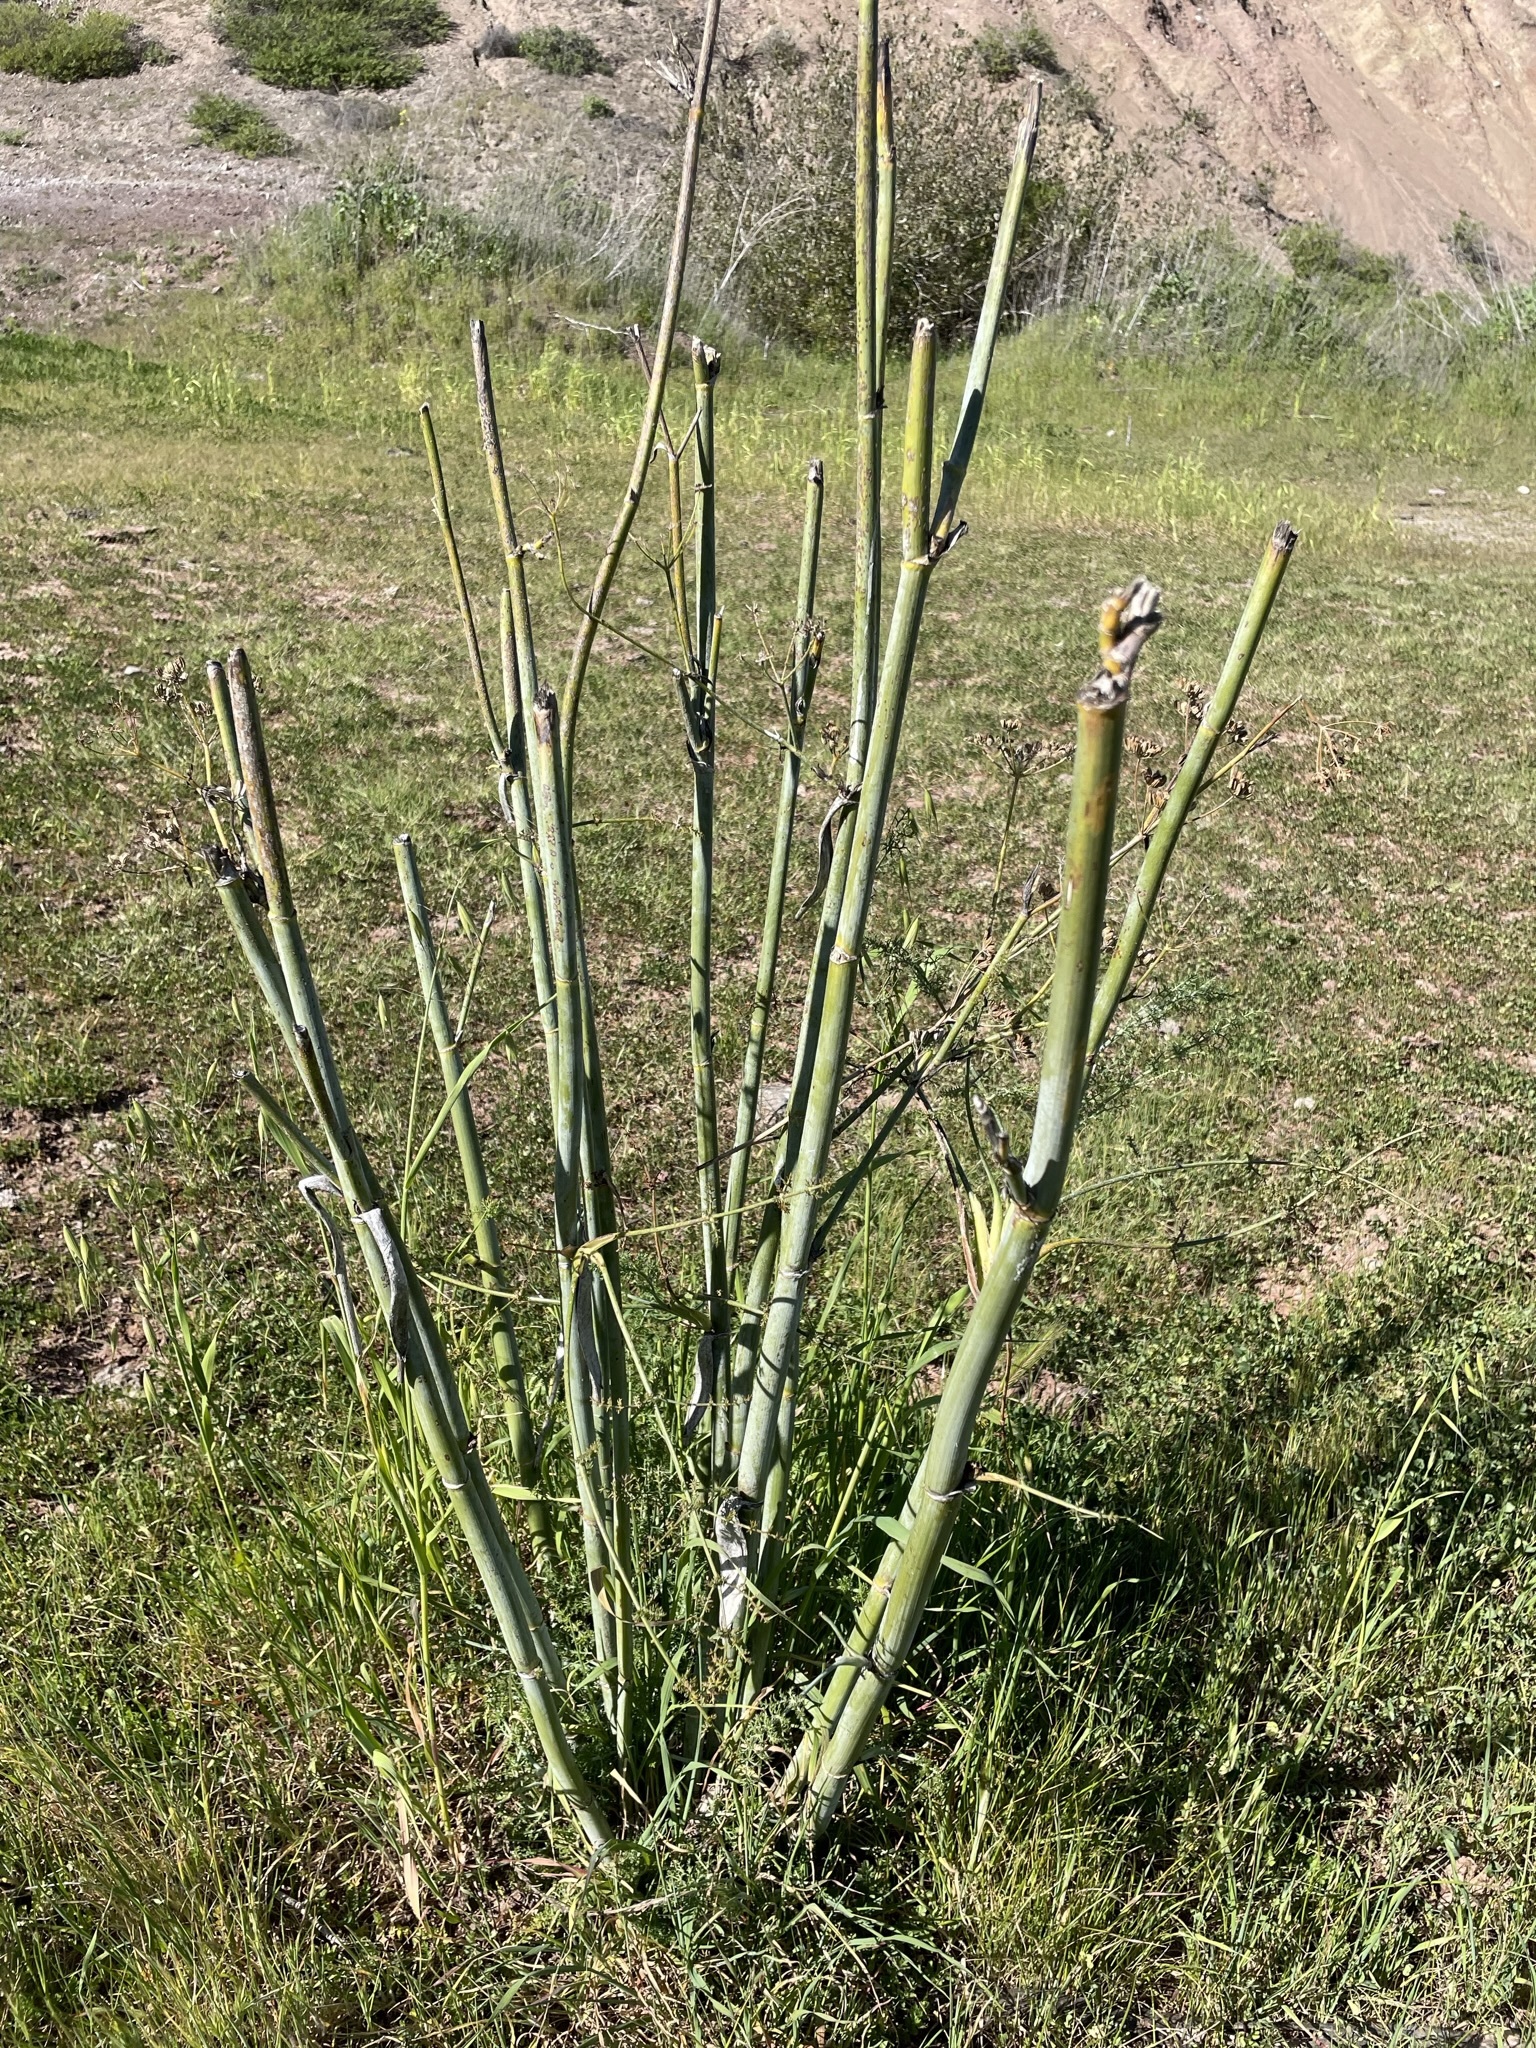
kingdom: Plantae
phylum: Tracheophyta
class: Magnoliopsida
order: Apiales
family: Apiaceae
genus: Foeniculum
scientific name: Foeniculum vulgare
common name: Fennel
